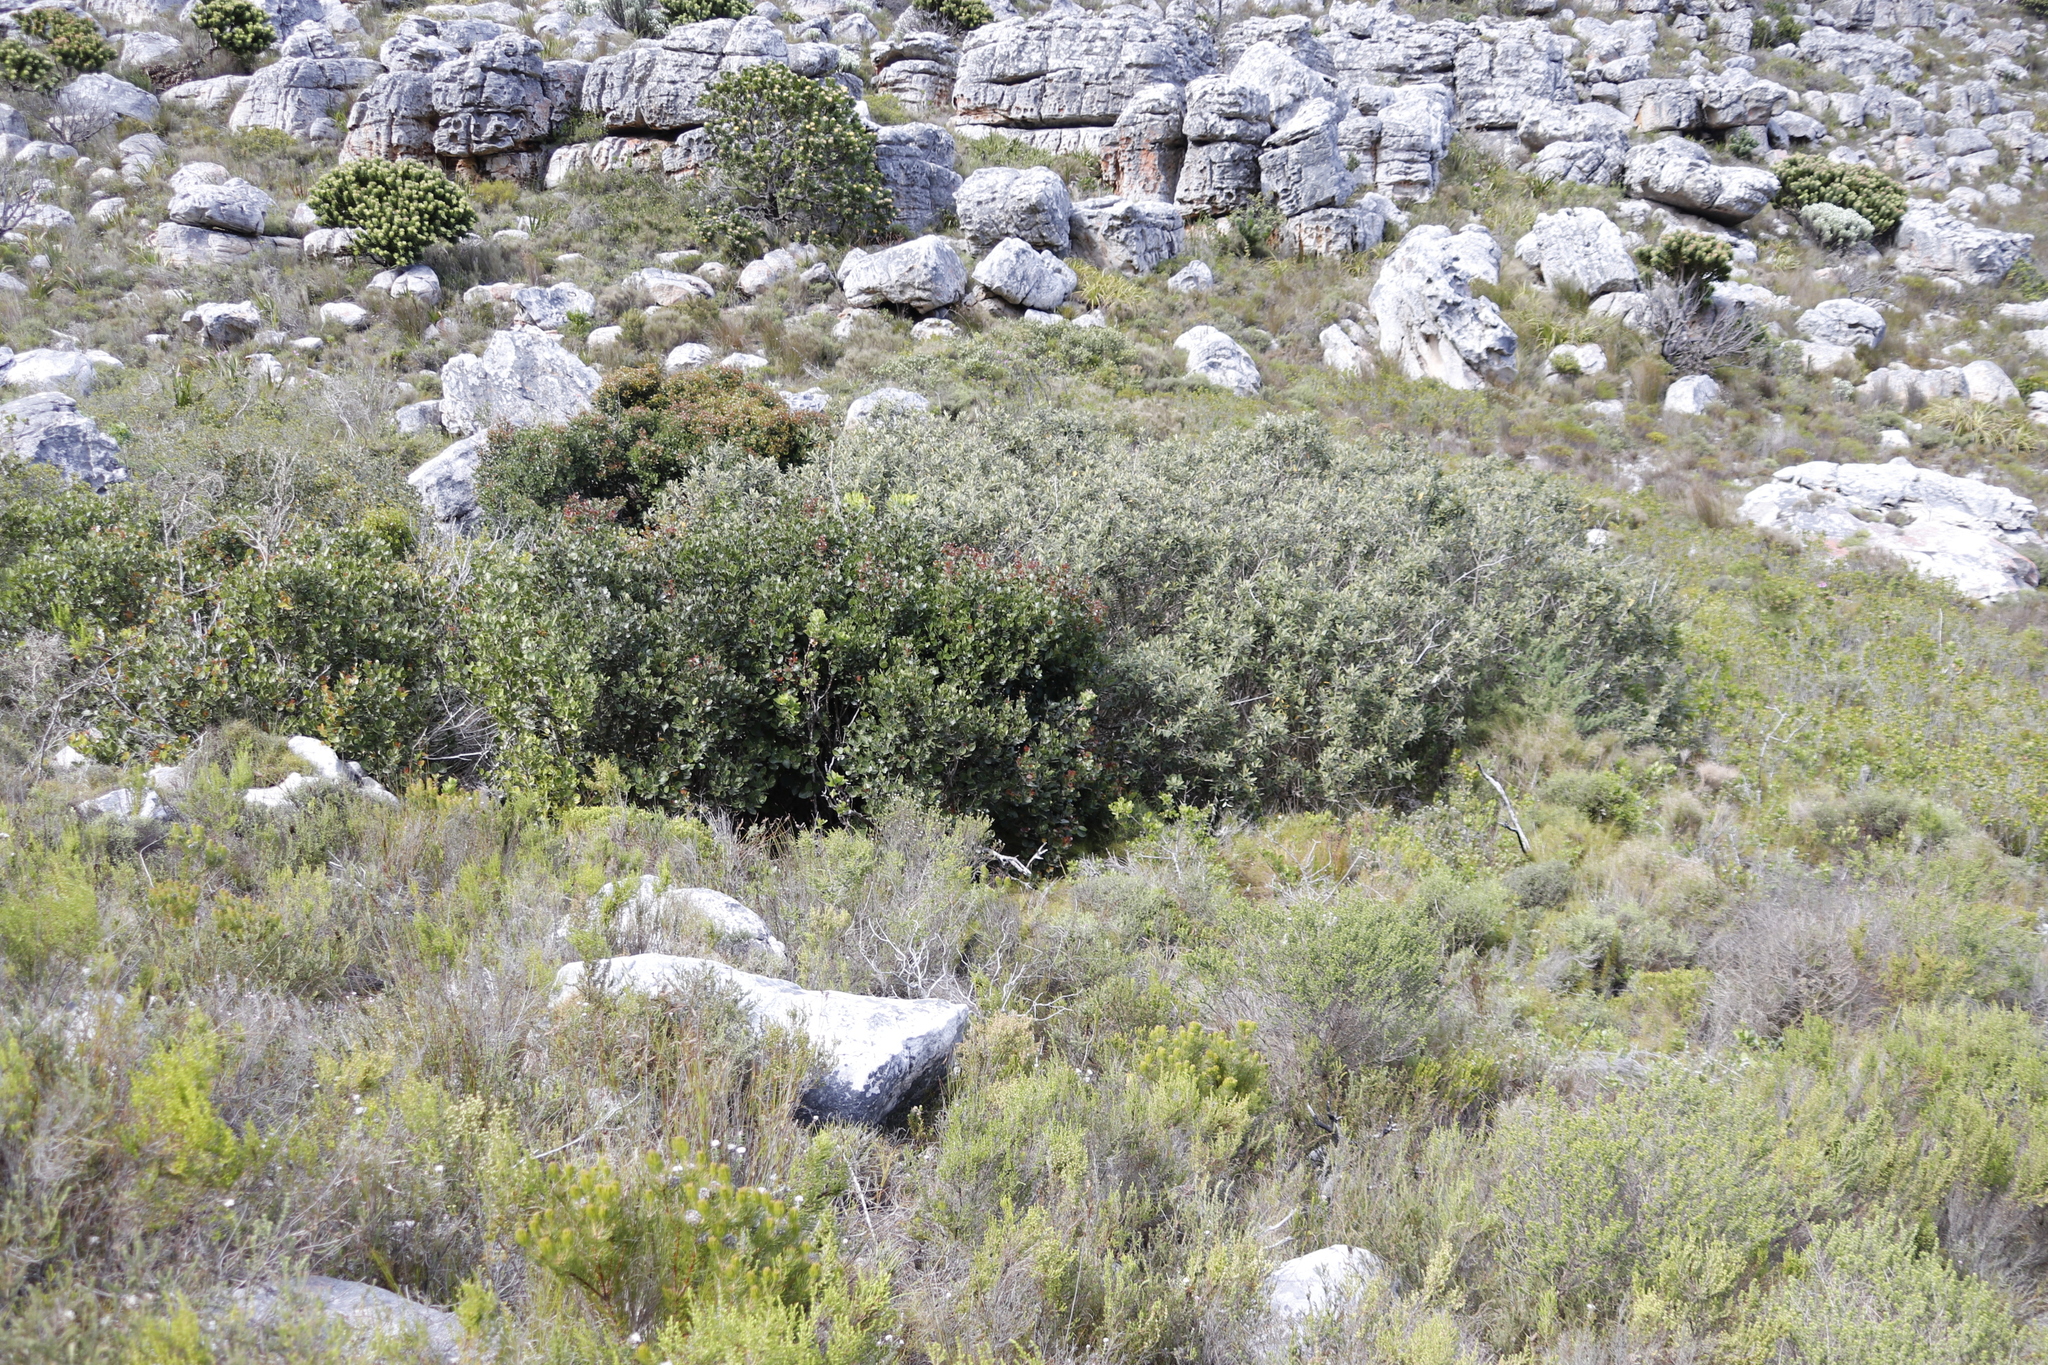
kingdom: Plantae
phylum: Tracheophyta
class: Magnoliopsida
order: Asterales
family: Asteraceae
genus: Tarchonanthus
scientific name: Tarchonanthus littoralis
